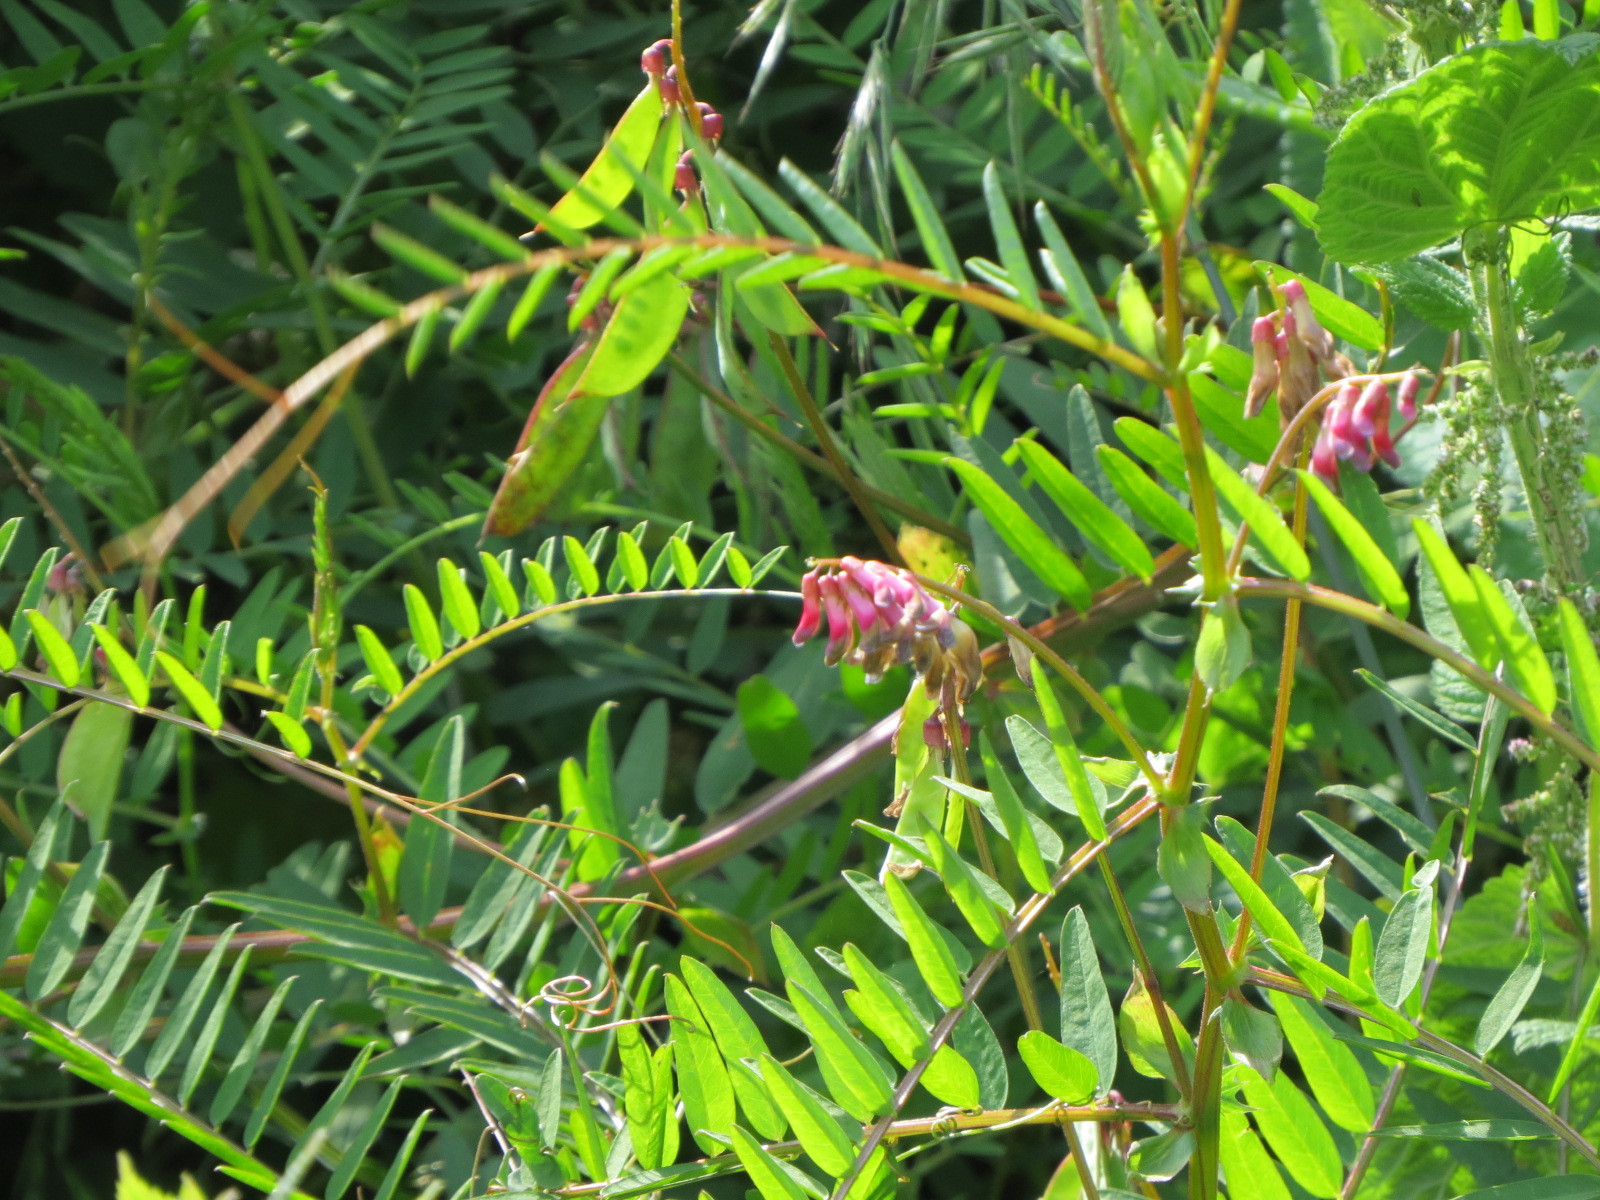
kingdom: Plantae
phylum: Tracheophyta
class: Magnoliopsida
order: Fabales
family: Fabaceae
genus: Vicia
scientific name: Vicia
